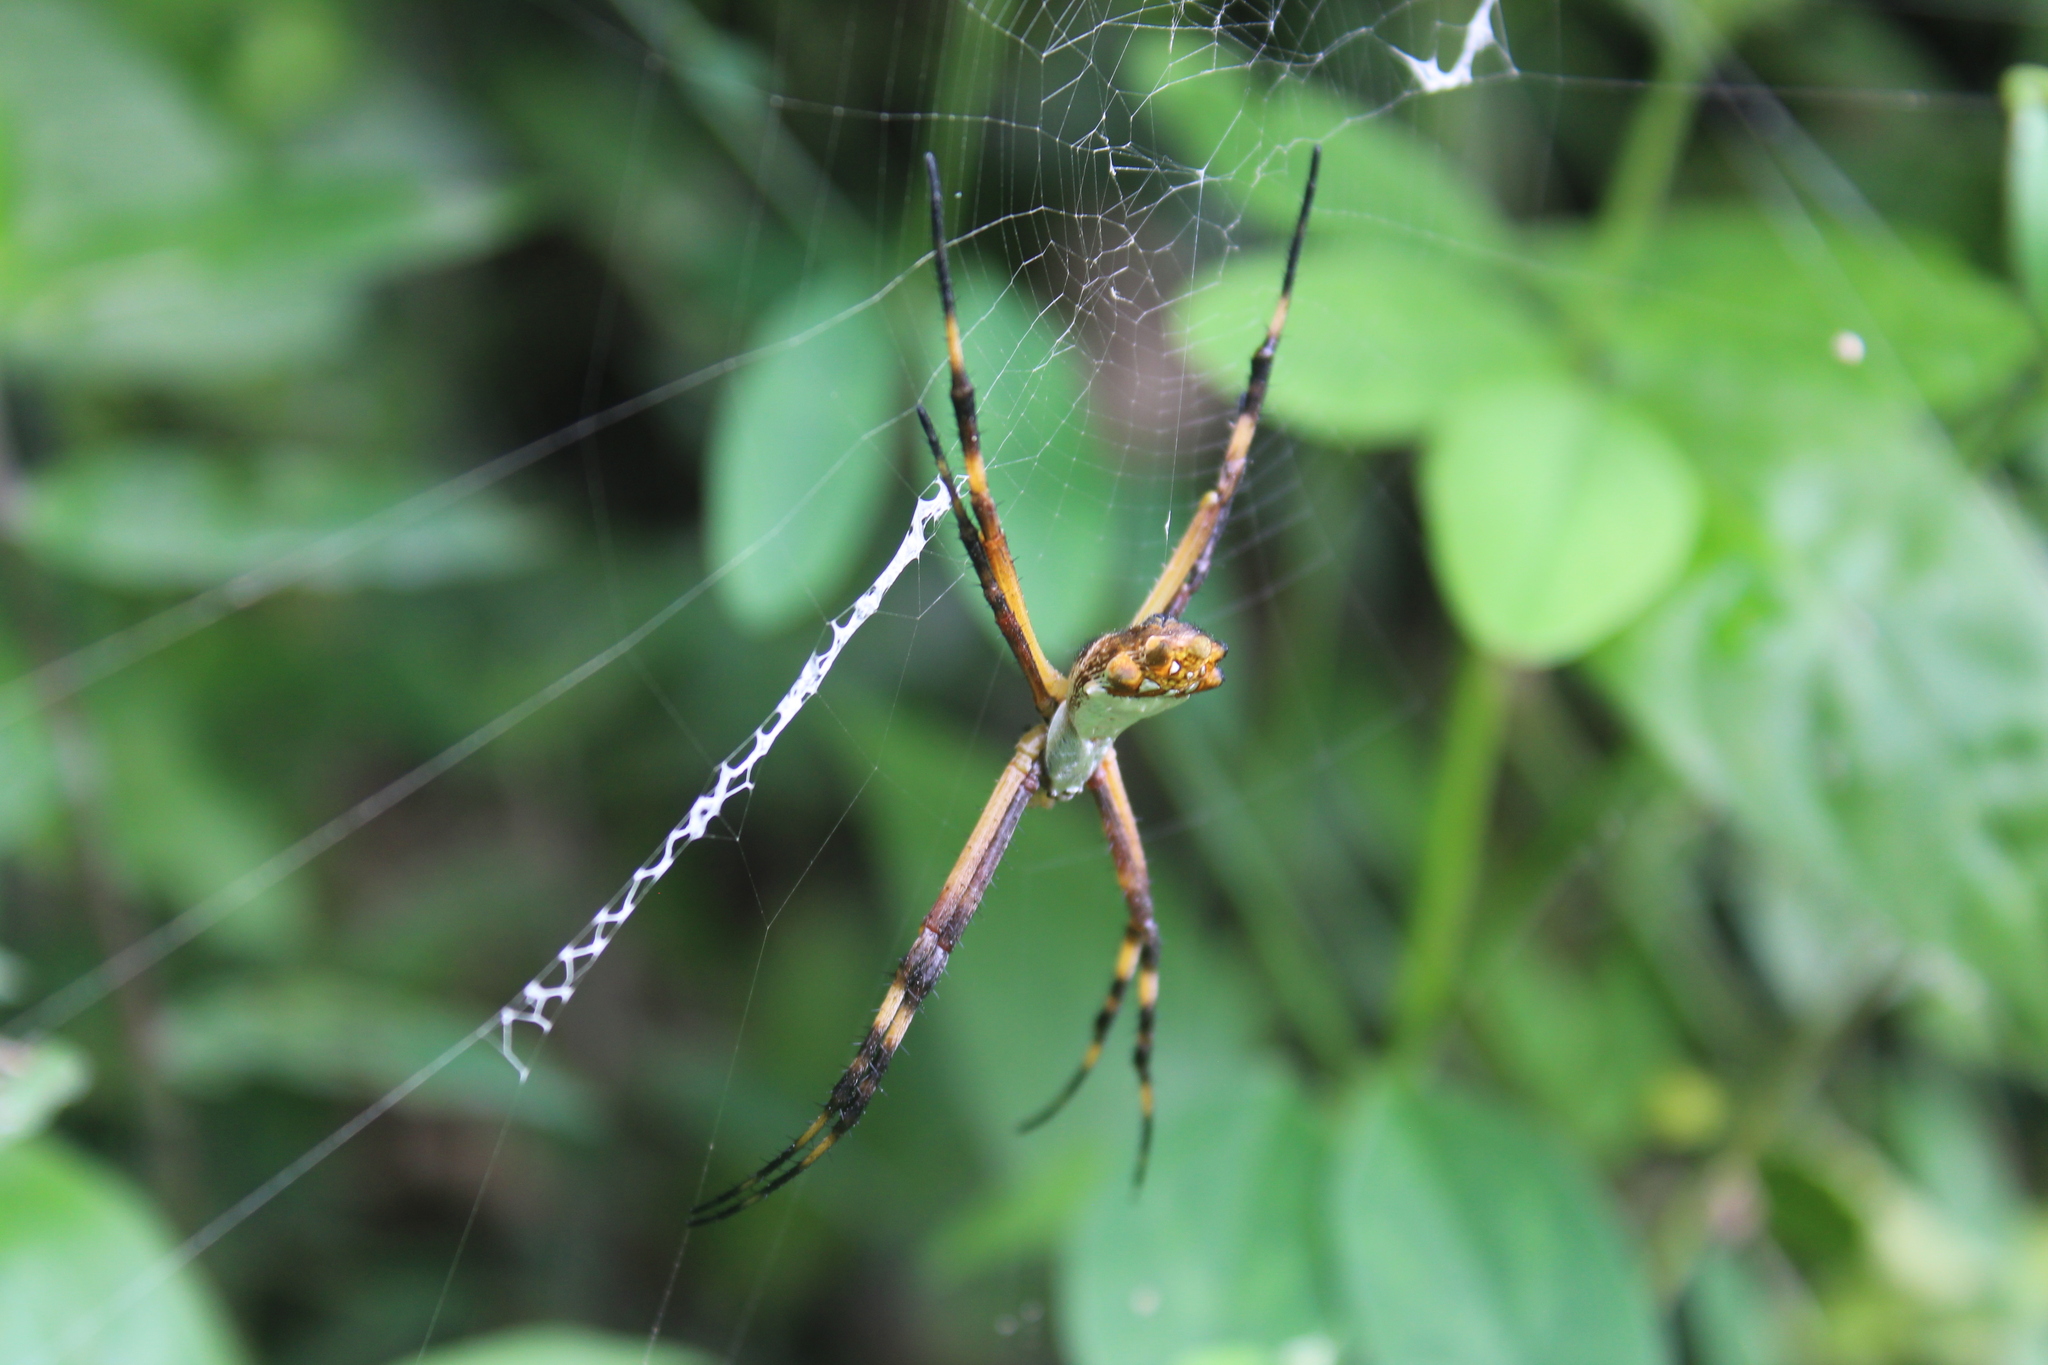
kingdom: Animalia
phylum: Arthropoda
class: Arachnida
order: Araneae
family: Araneidae
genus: Argiope
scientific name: Argiope argentata
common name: Orb weavers
